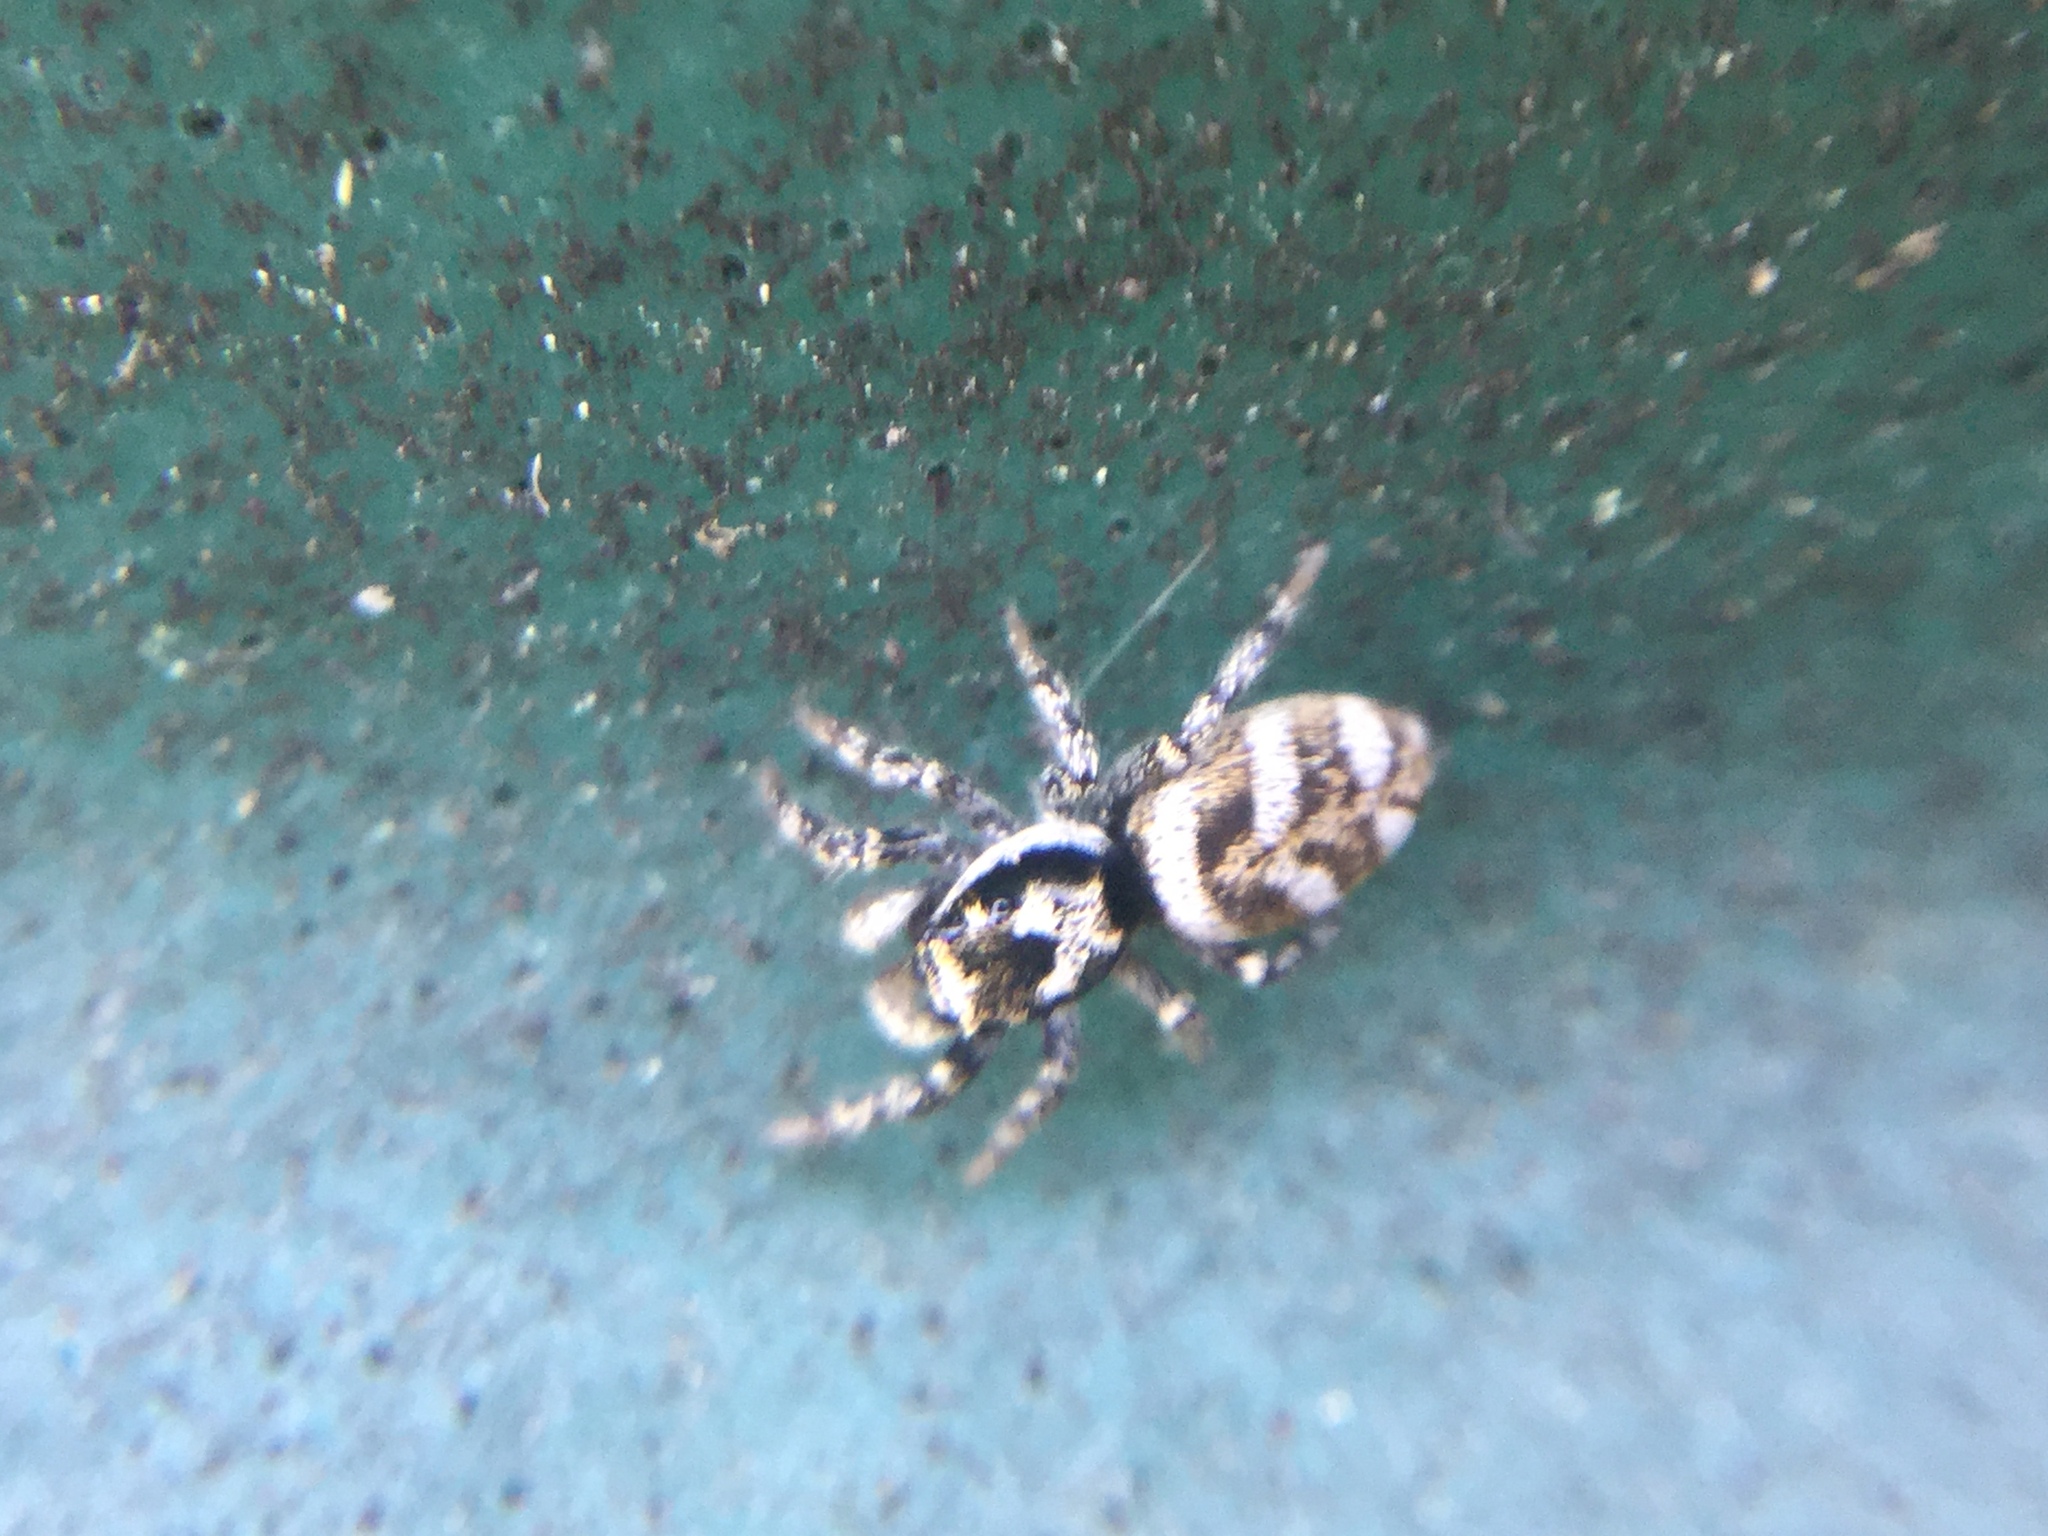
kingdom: Animalia
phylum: Arthropoda
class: Arachnida
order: Araneae
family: Salticidae
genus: Salticus
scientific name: Salticus scenicus
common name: Zebra jumper
